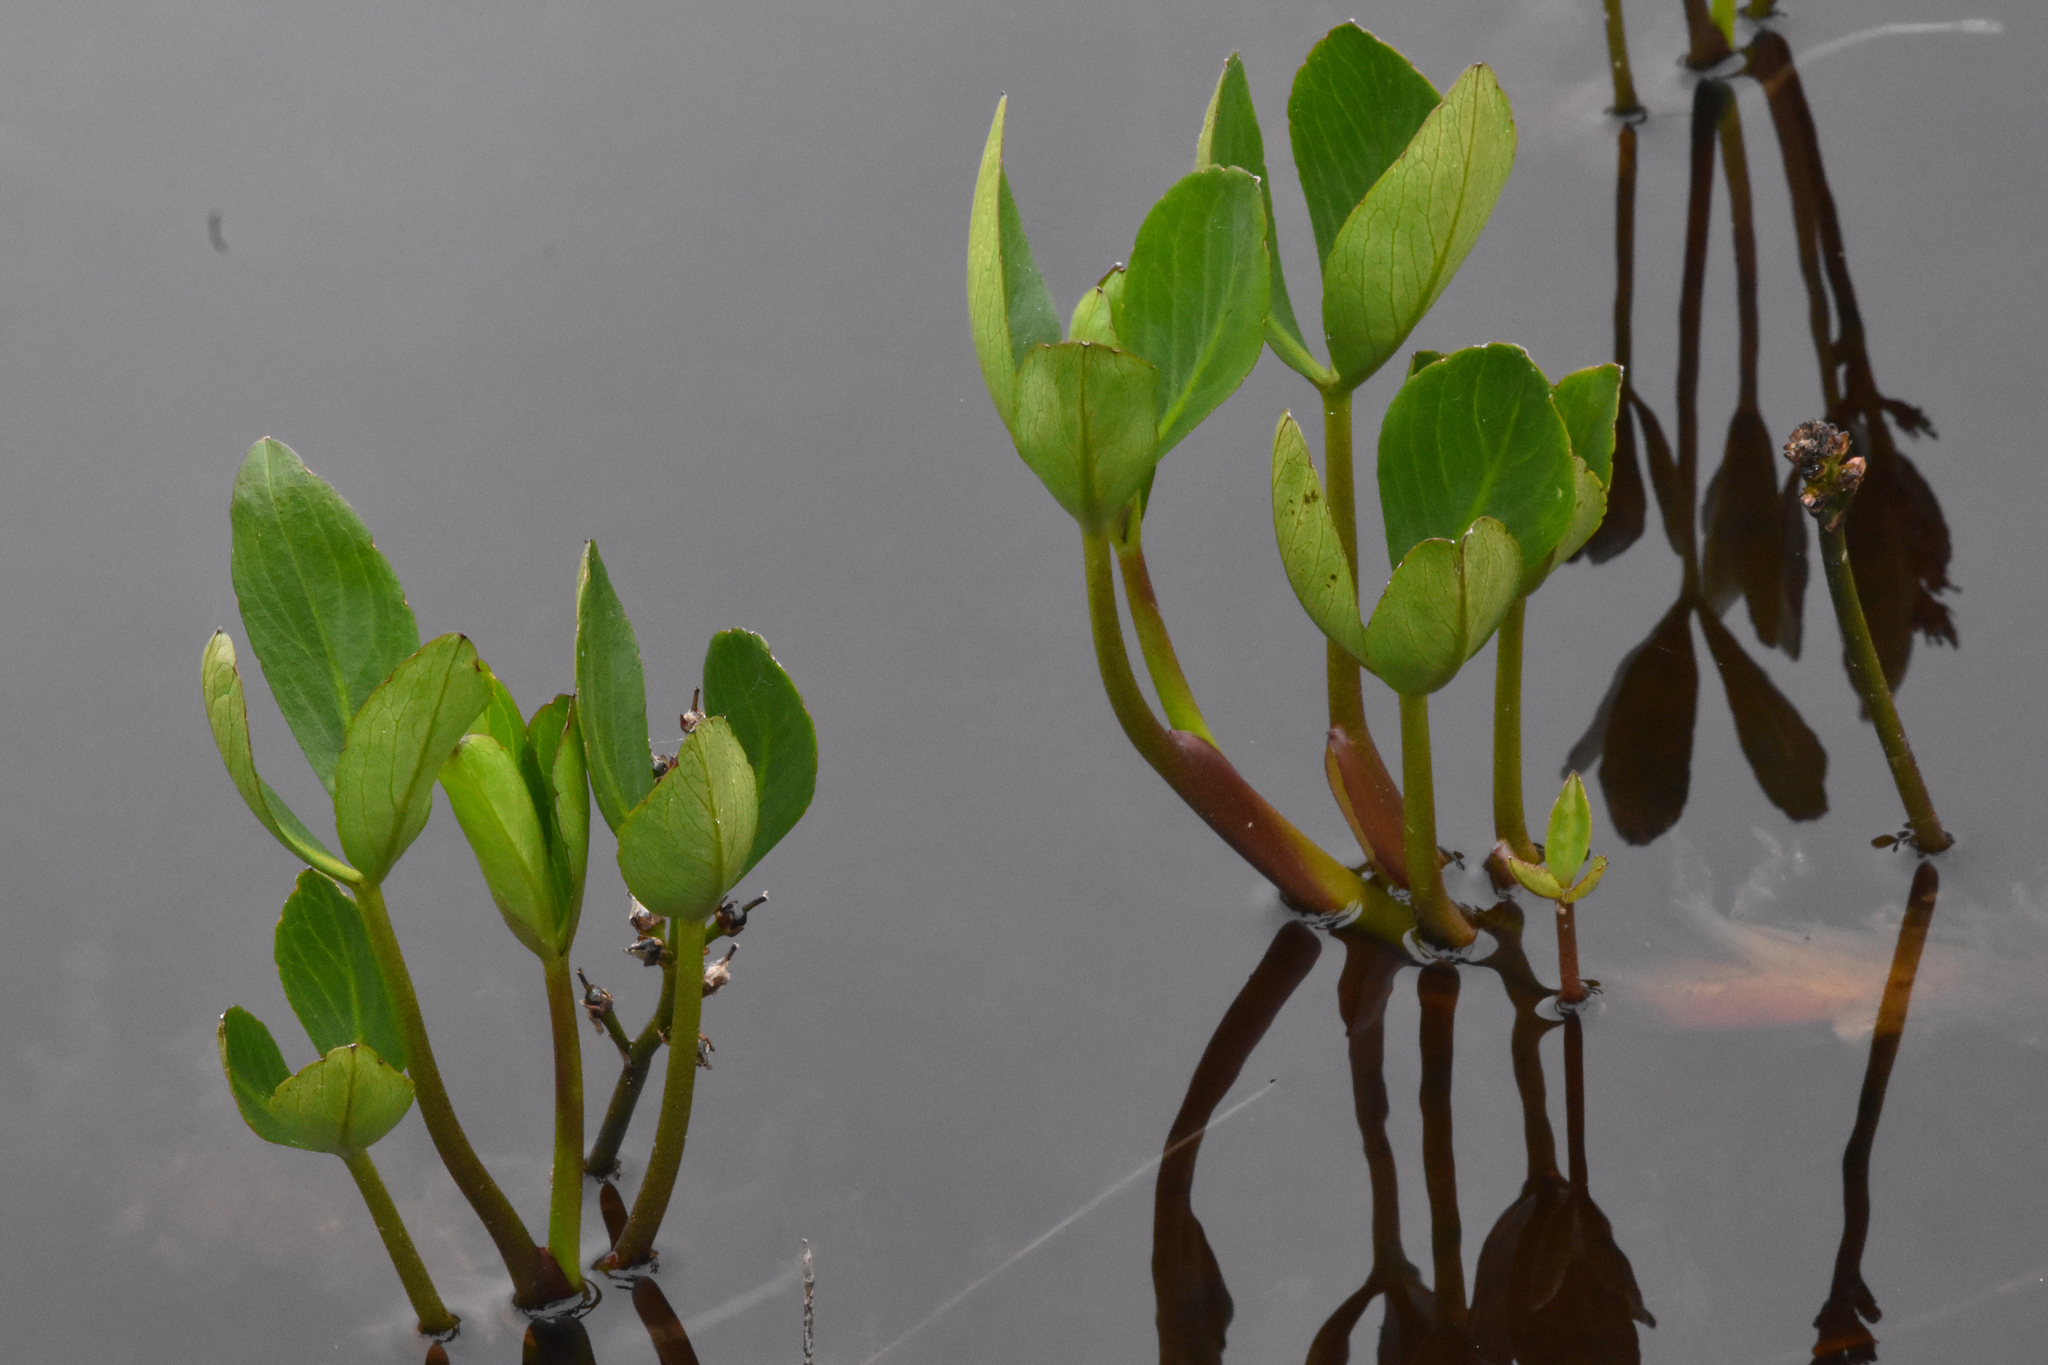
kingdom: Plantae
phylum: Tracheophyta
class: Magnoliopsida
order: Asterales
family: Menyanthaceae
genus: Menyanthes
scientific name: Menyanthes trifoliata
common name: Bogbean
